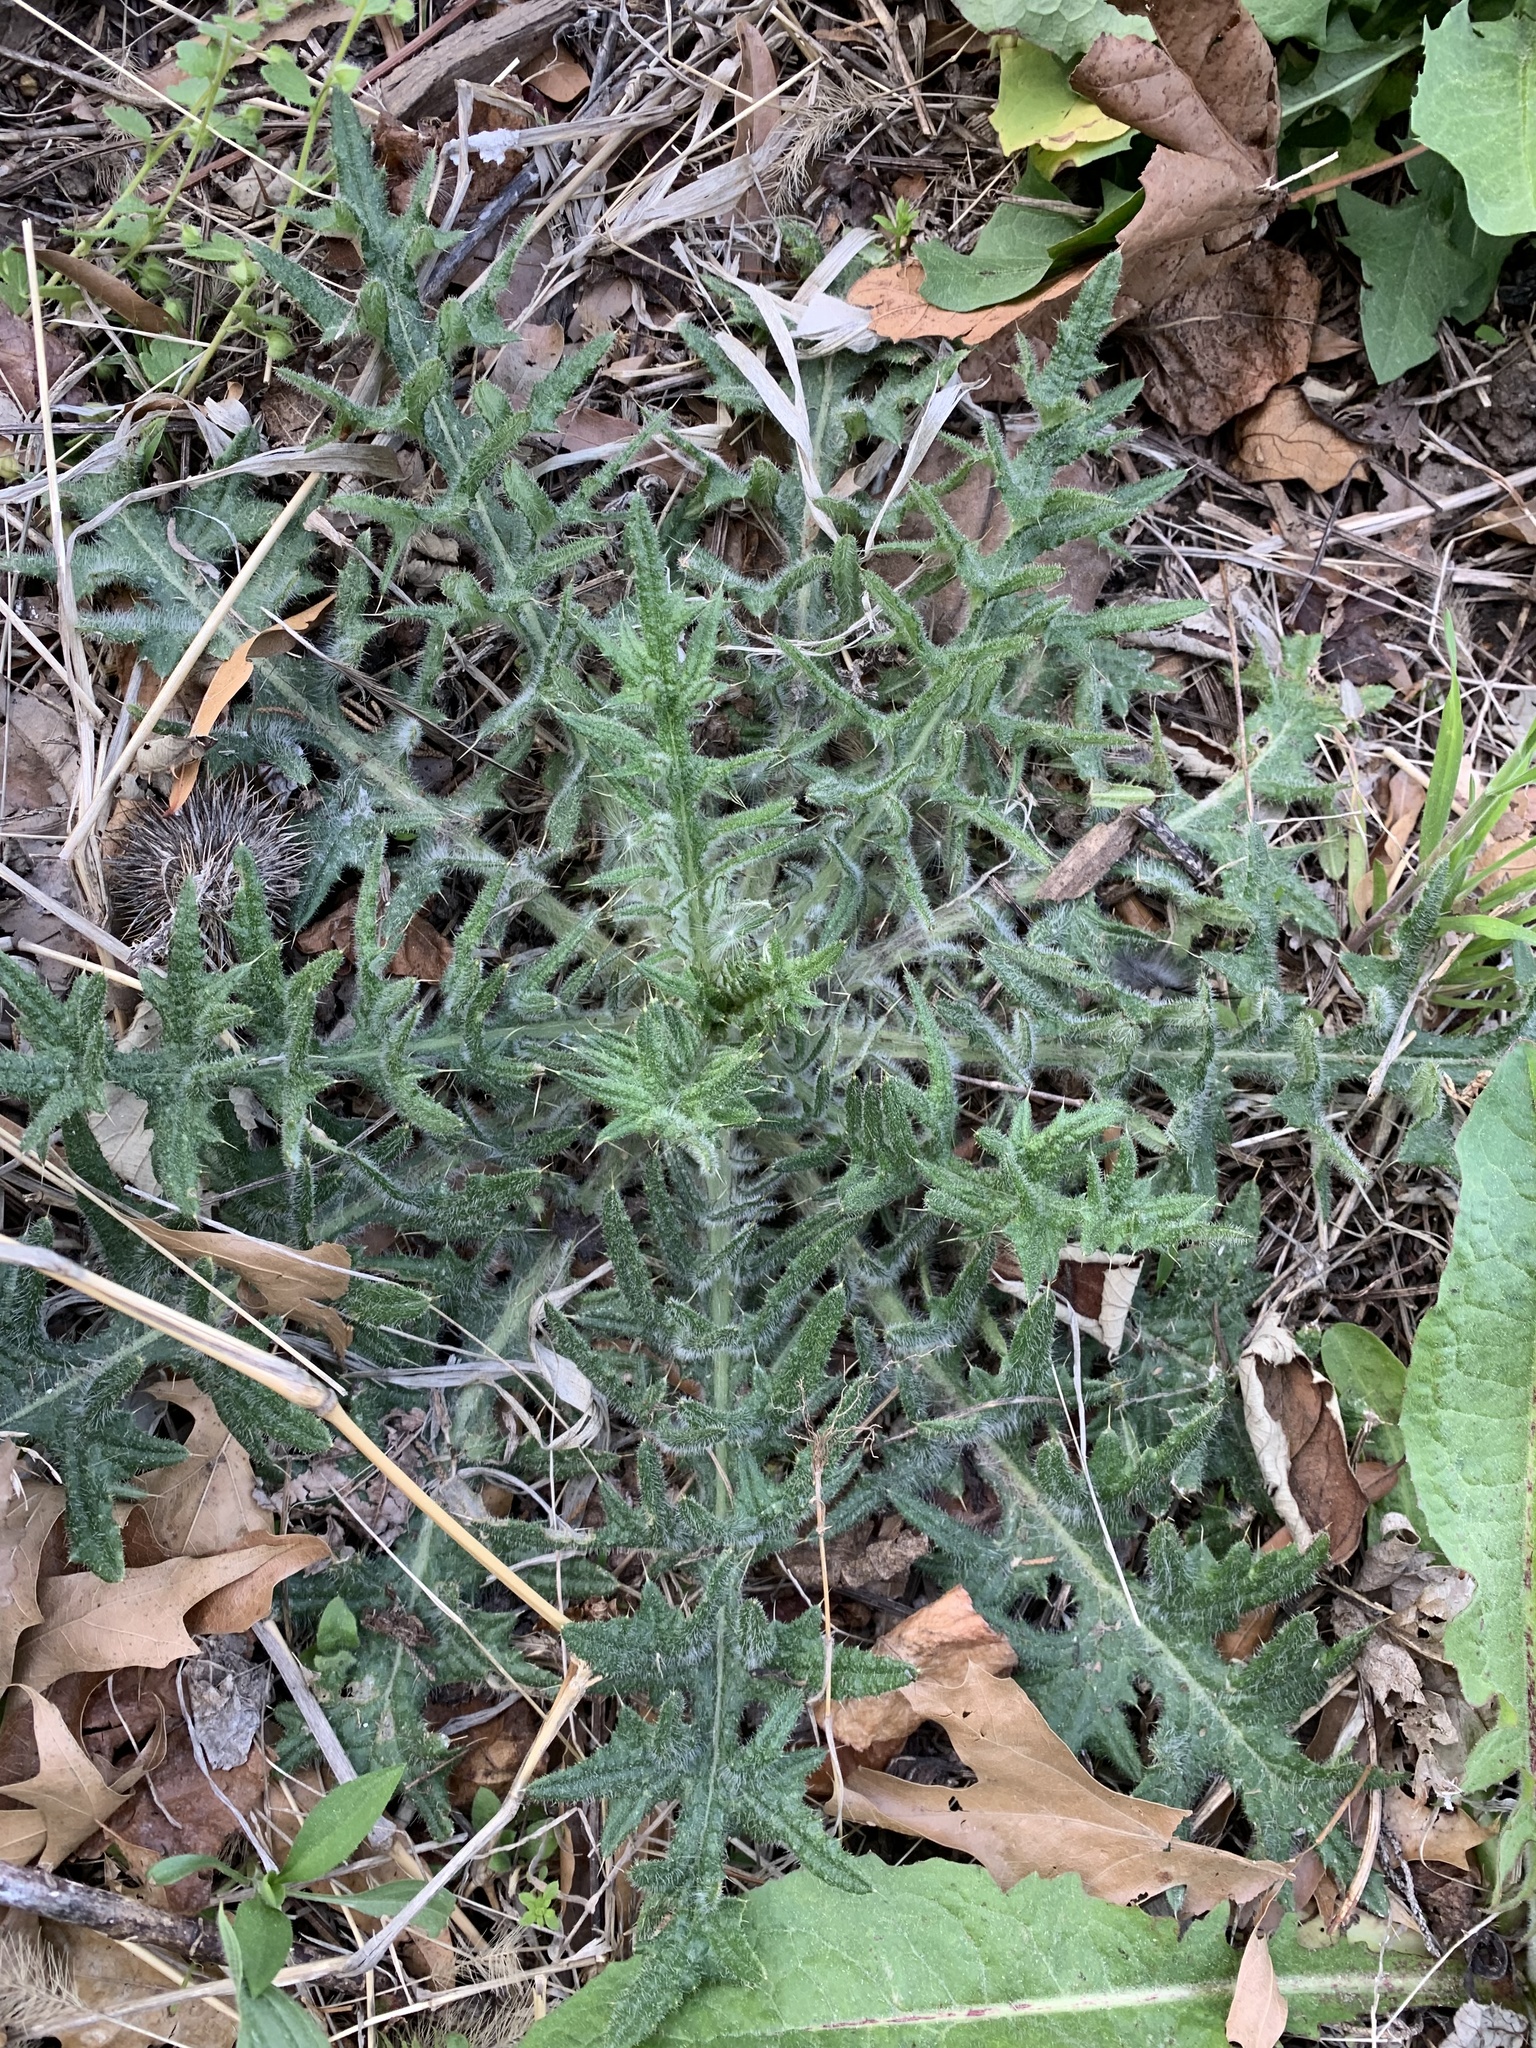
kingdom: Plantae
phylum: Tracheophyta
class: Magnoliopsida
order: Asterales
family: Asteraceae
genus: Cirsium
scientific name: Cirsium vulgare
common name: Bull thistle
